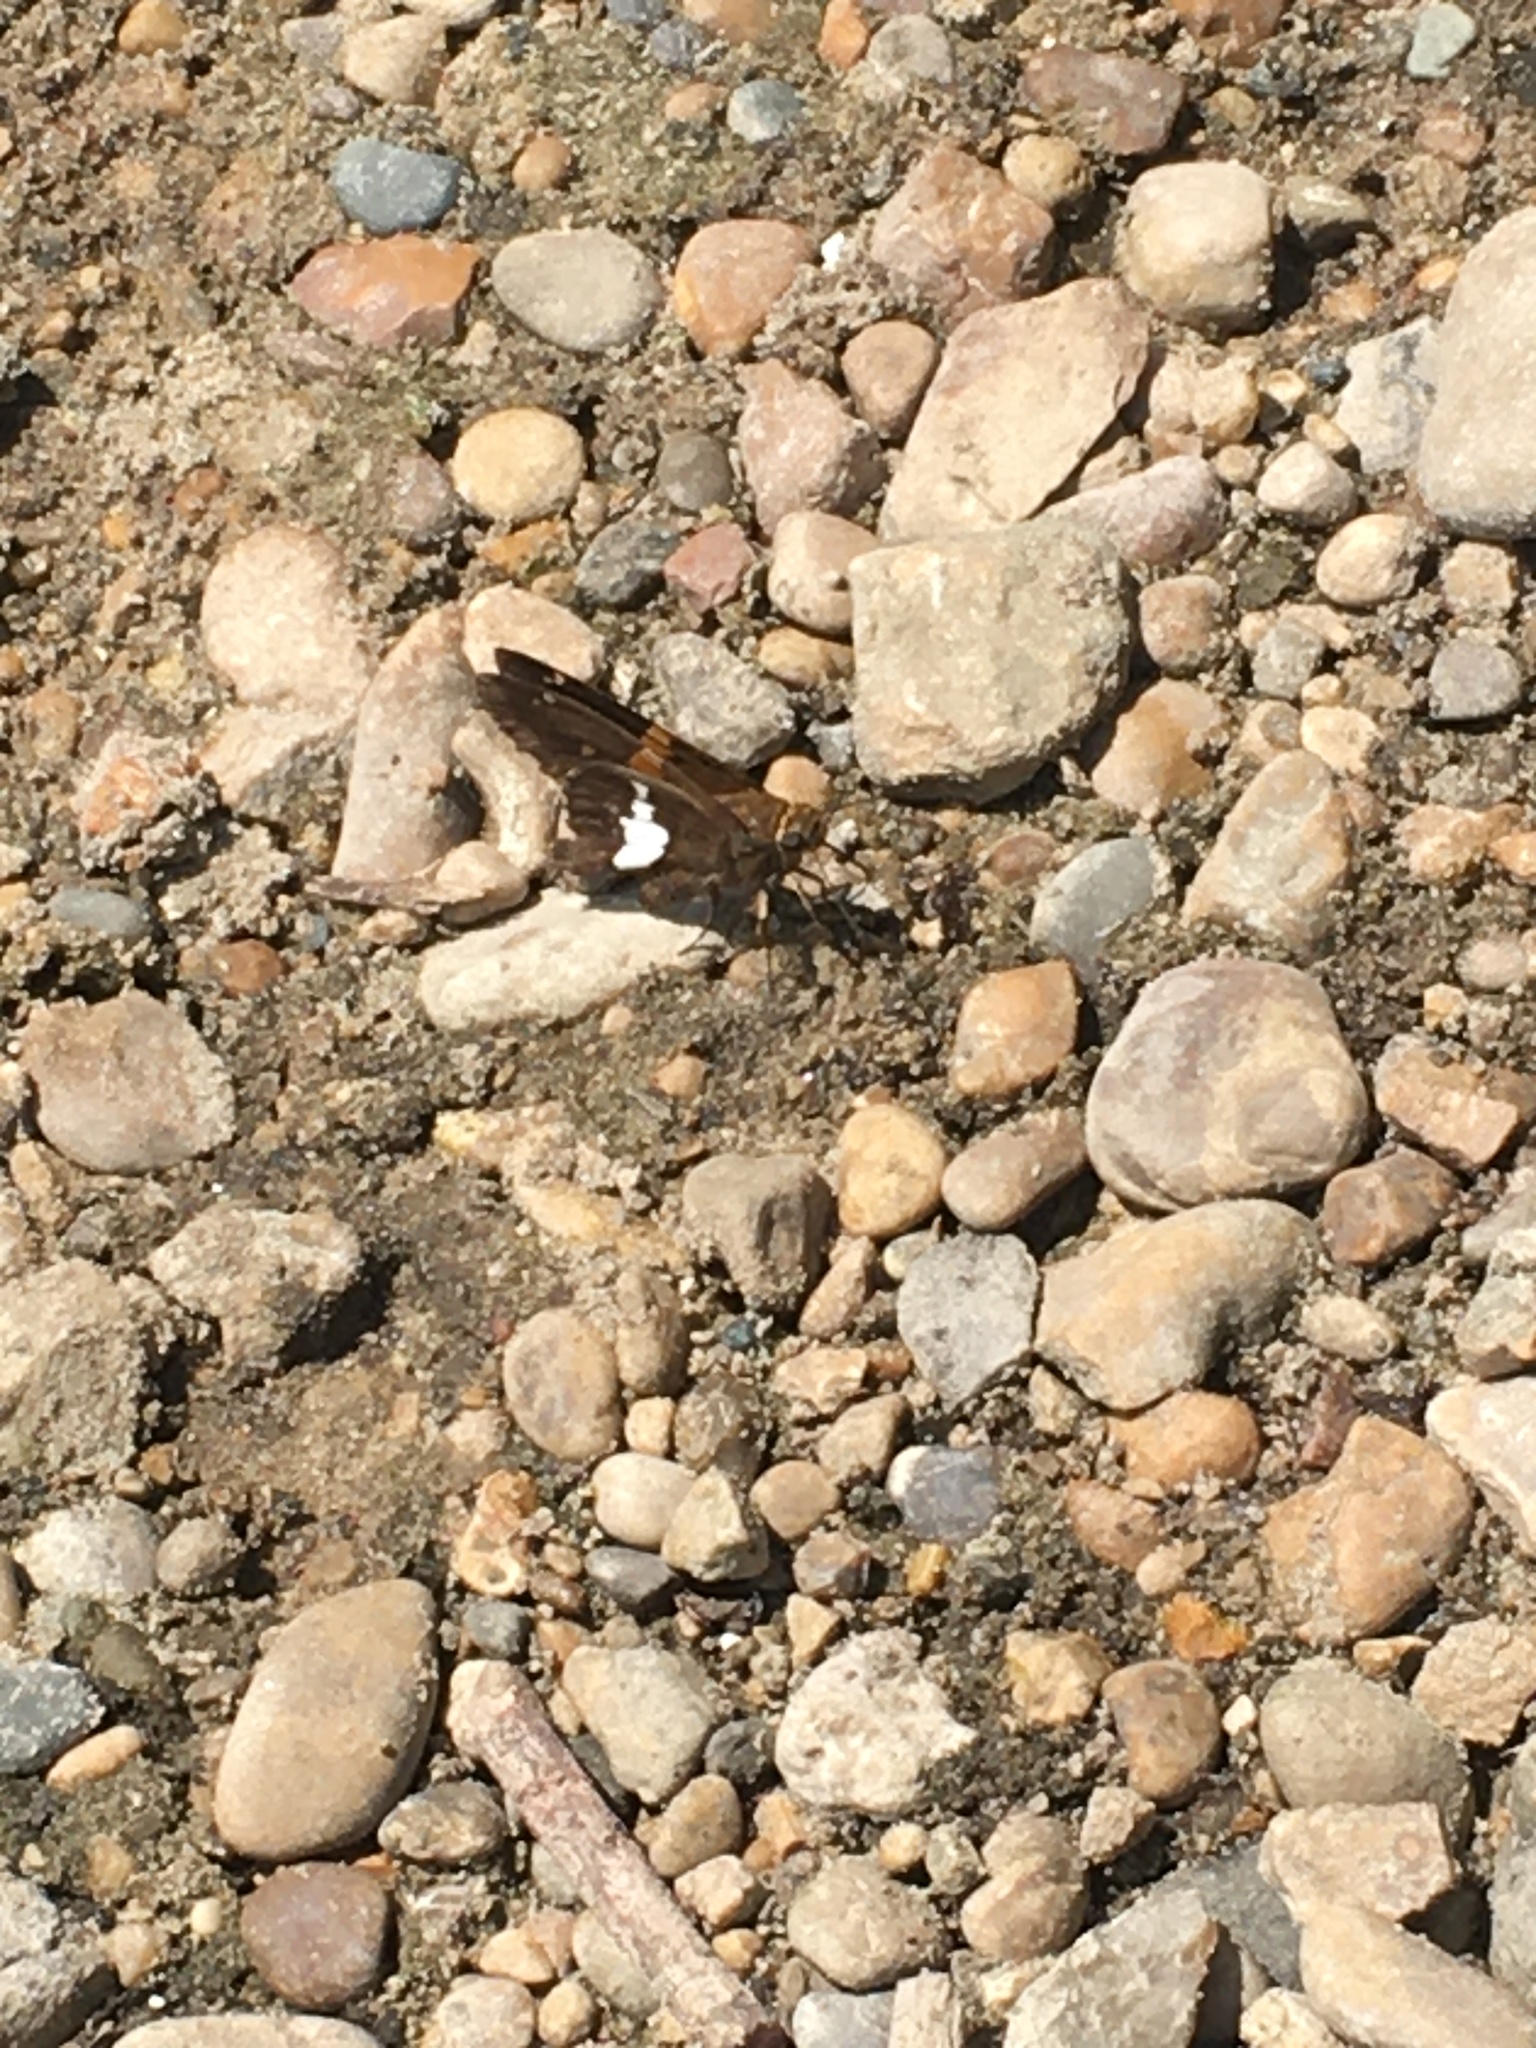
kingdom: Animalia
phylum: Arthropoda
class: Insecta
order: Lepidoptera
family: Hesperiidae
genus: Epargyreus
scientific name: Epargyreus clarus
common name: Silver-spotted skipper
